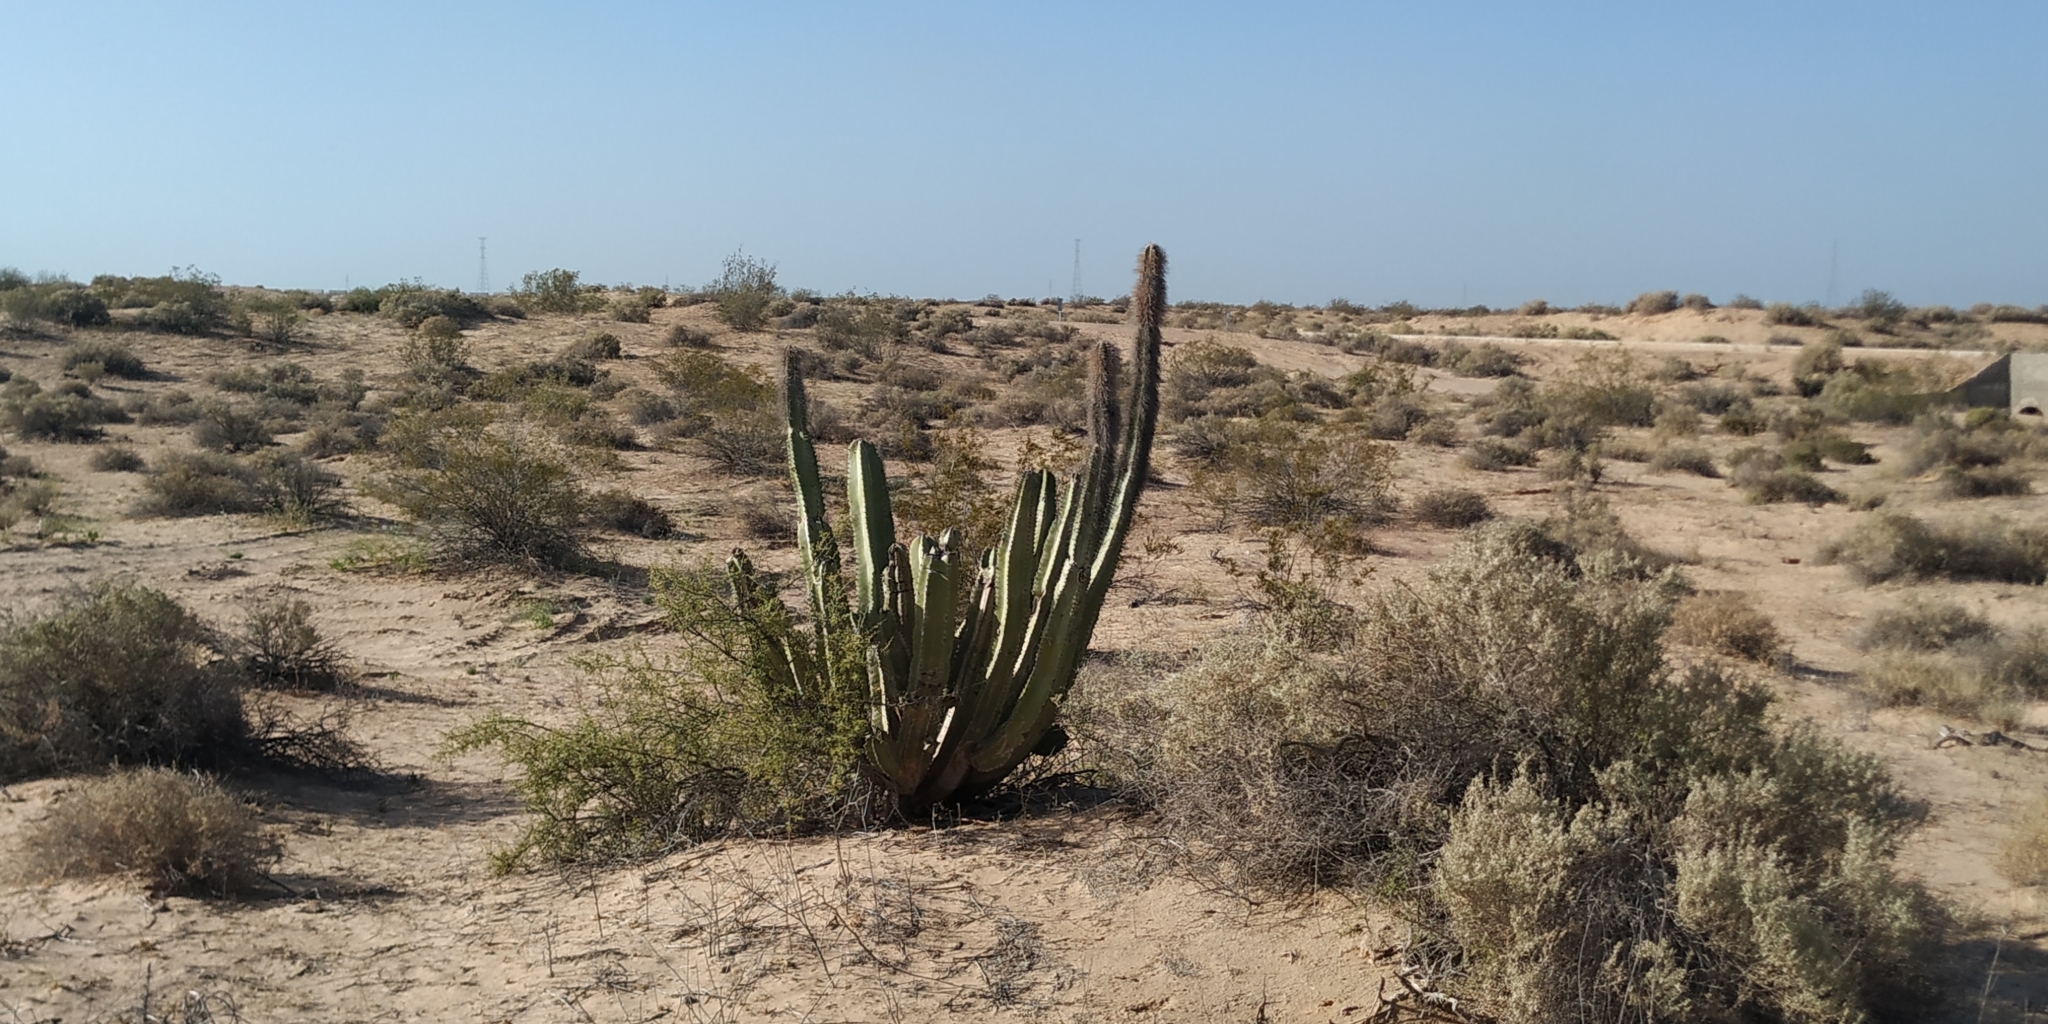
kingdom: Plantae
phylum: Tracheophyta
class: Magnoliopsida
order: Caryophyllales
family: Cactaceae
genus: Pachycereus
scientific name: Pachycereus schottii
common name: Senita cactus
